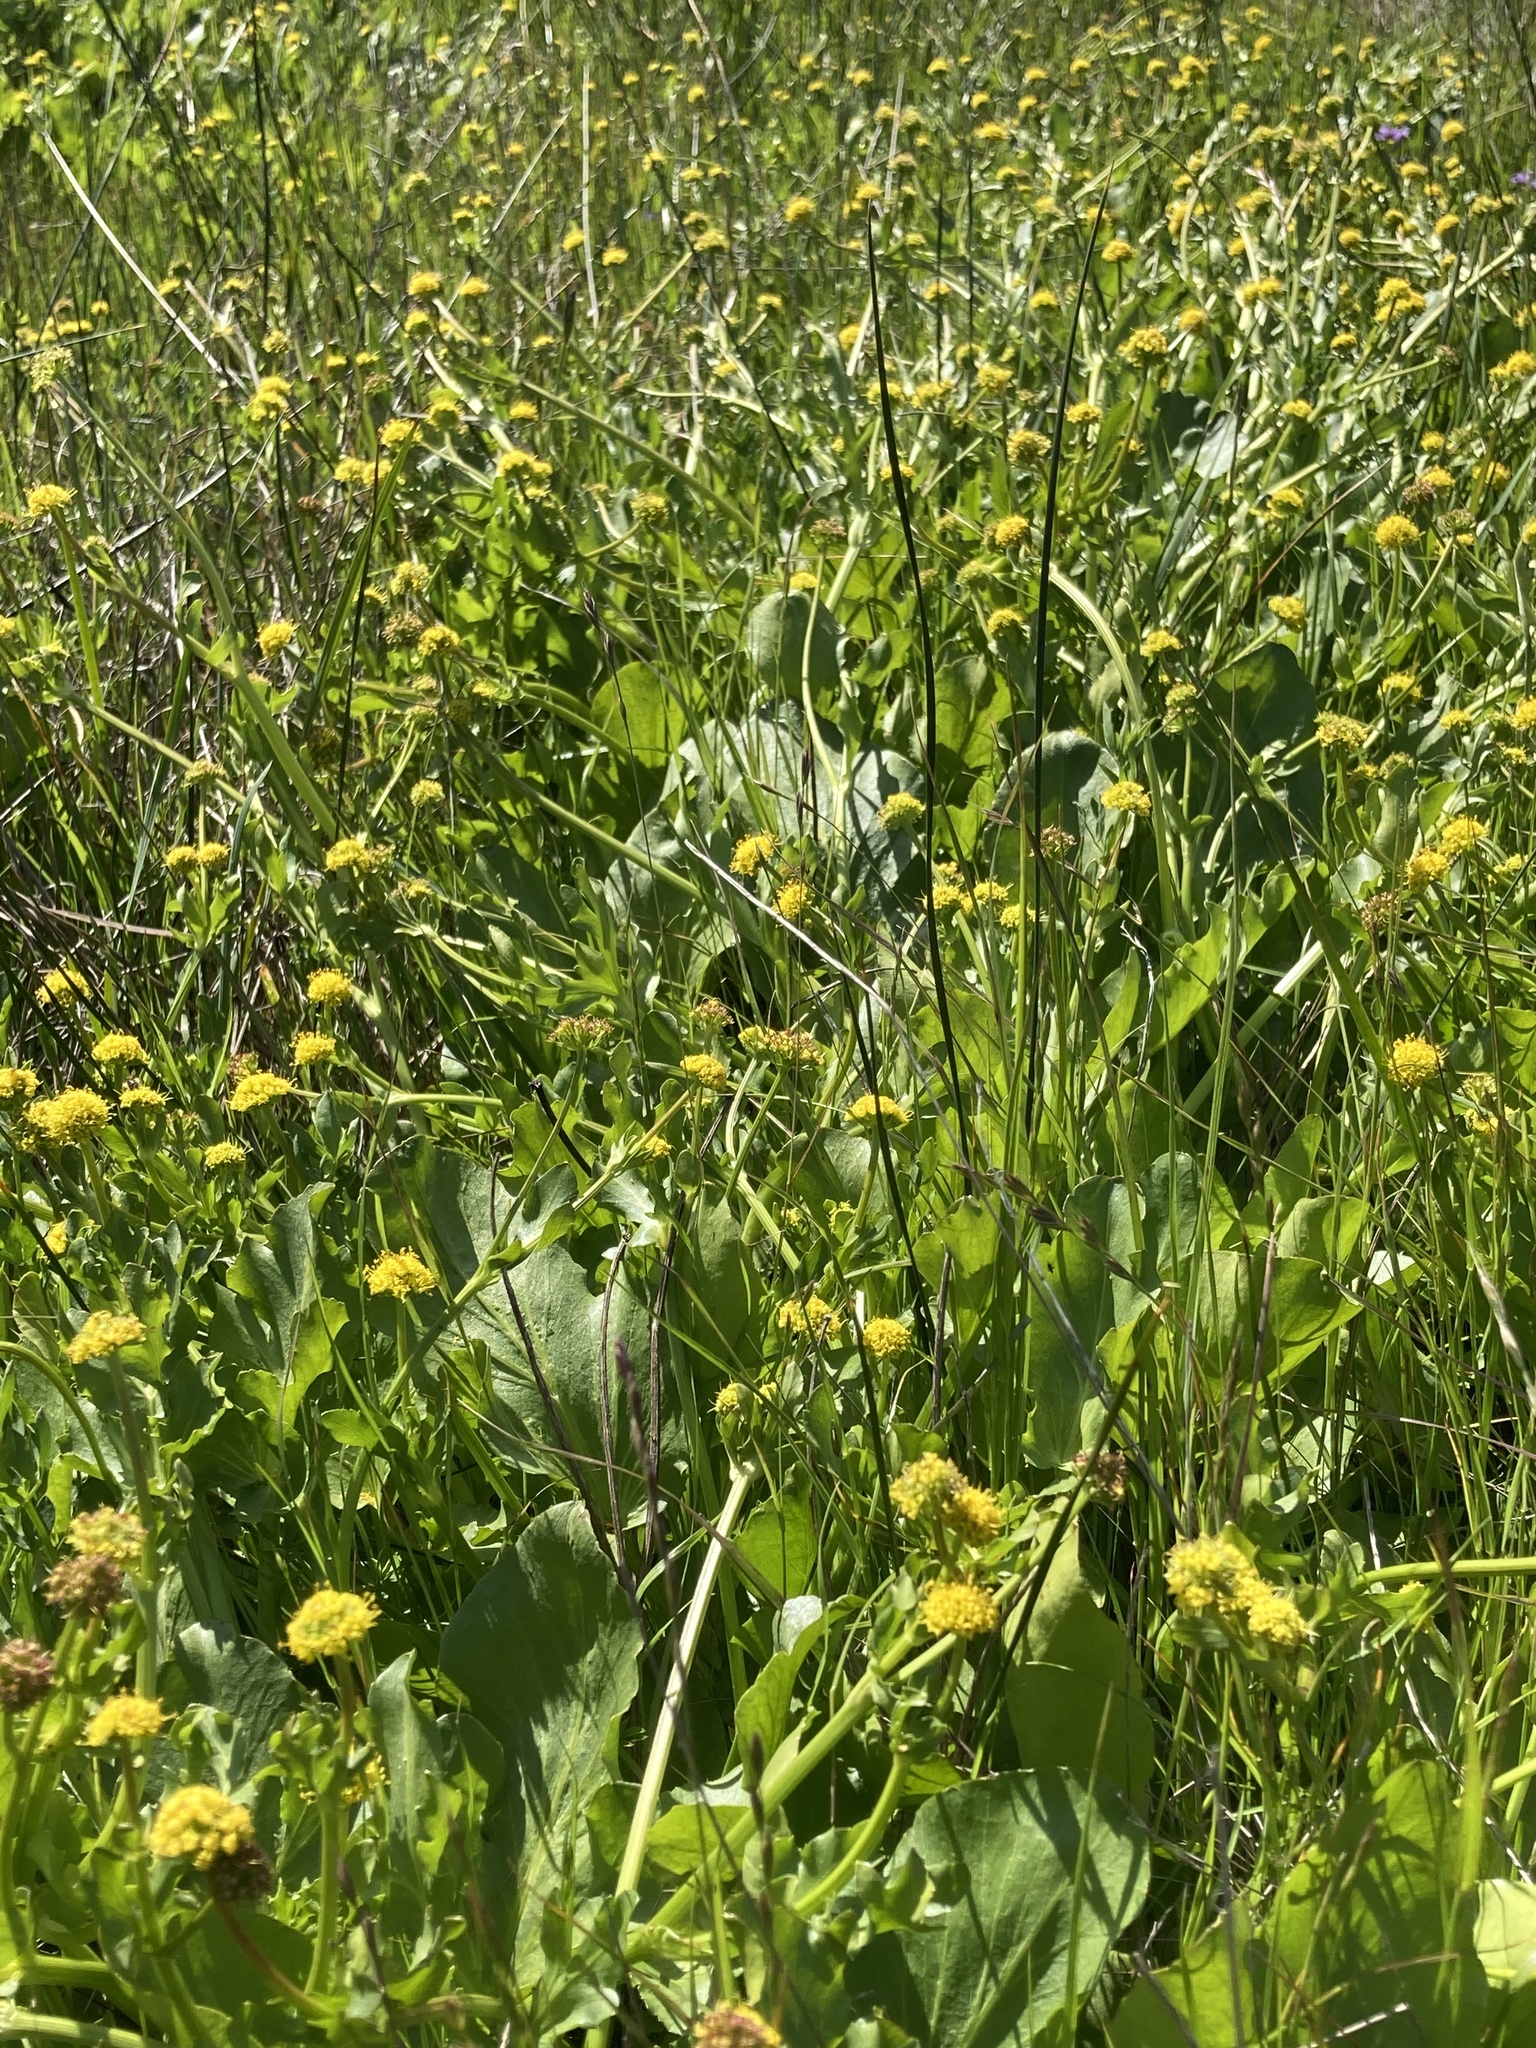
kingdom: Plantae
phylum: Tracheophyta
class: Magnoliopsida
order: Apiales
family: Apiaceae
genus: Sanicula
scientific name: Sanicula maritima
